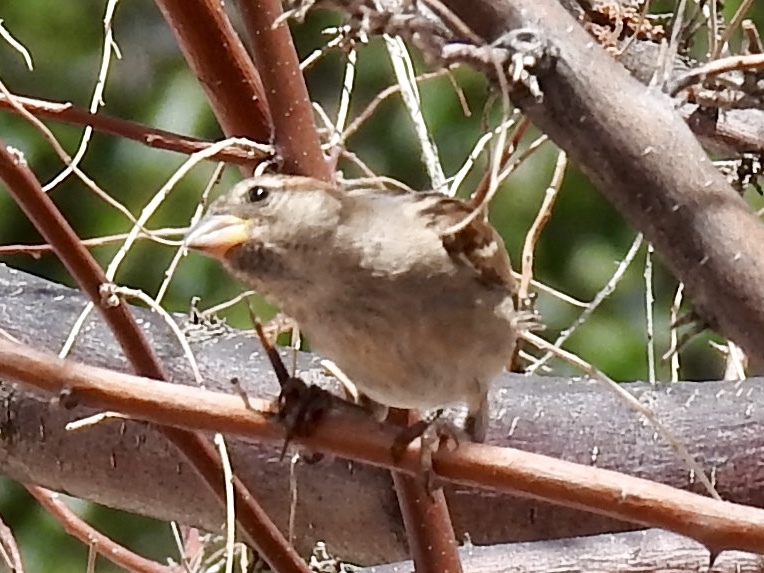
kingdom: Animalia
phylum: Chordata
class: Aves
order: Passeriformes
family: Passeridae
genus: Passer
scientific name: Passer domesticus
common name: House sparrow
